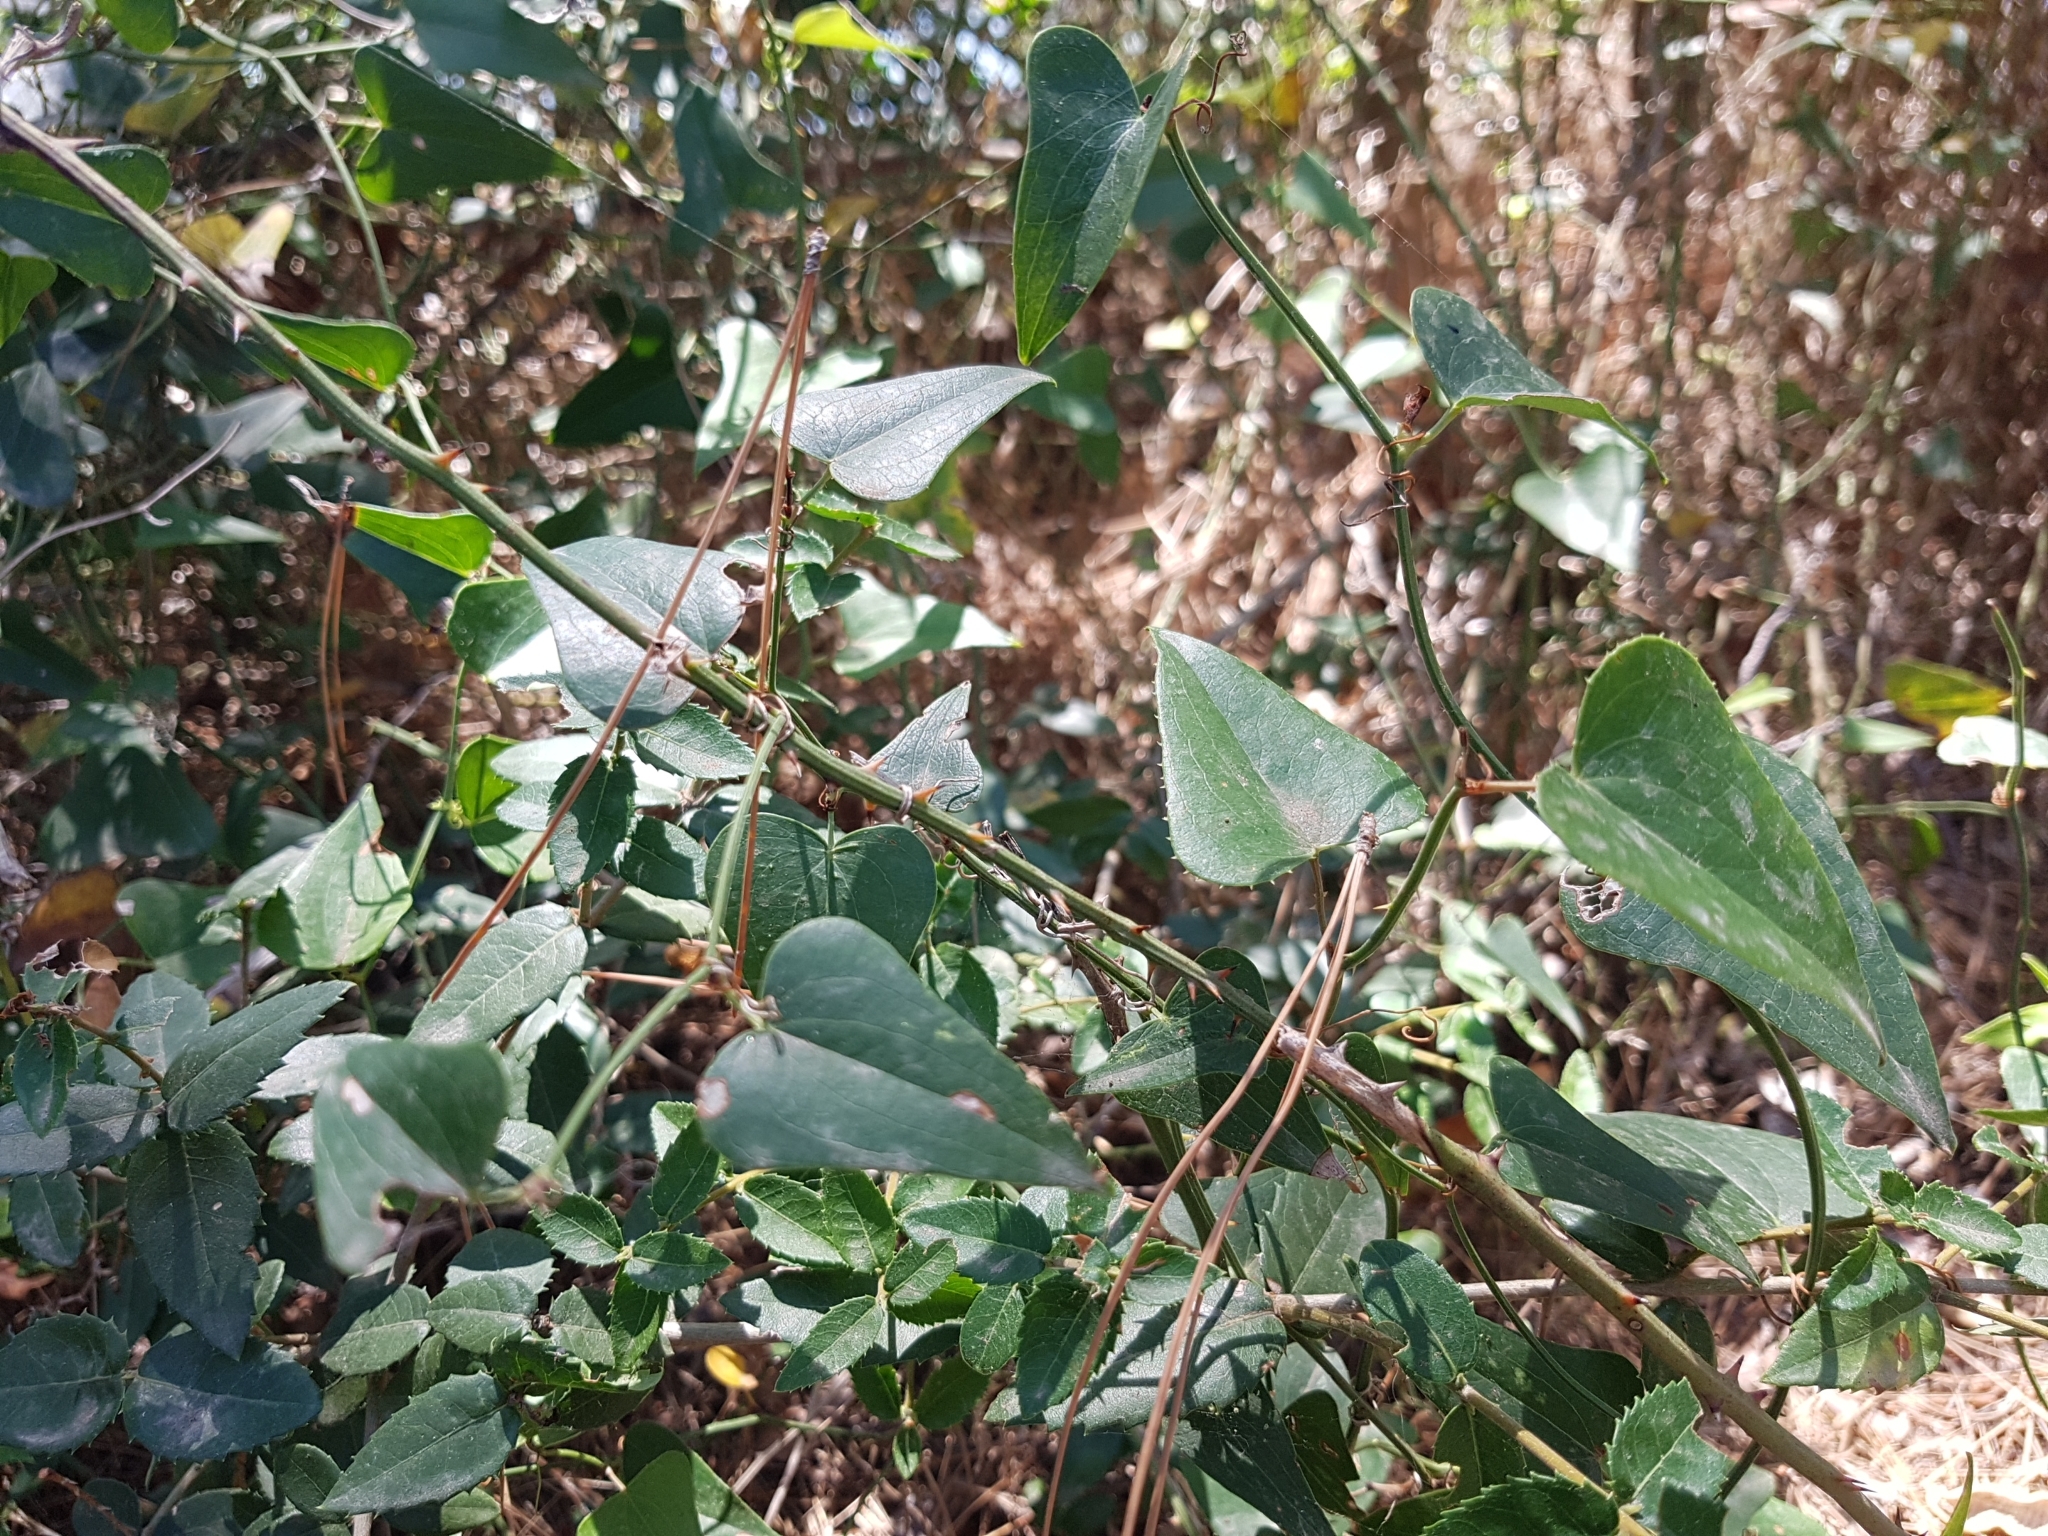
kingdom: Plantae
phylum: Tracheophyta
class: Liliopsida
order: Liliales
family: Smilacaceae
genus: Smilax
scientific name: Smilax aspera
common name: Common smilax
